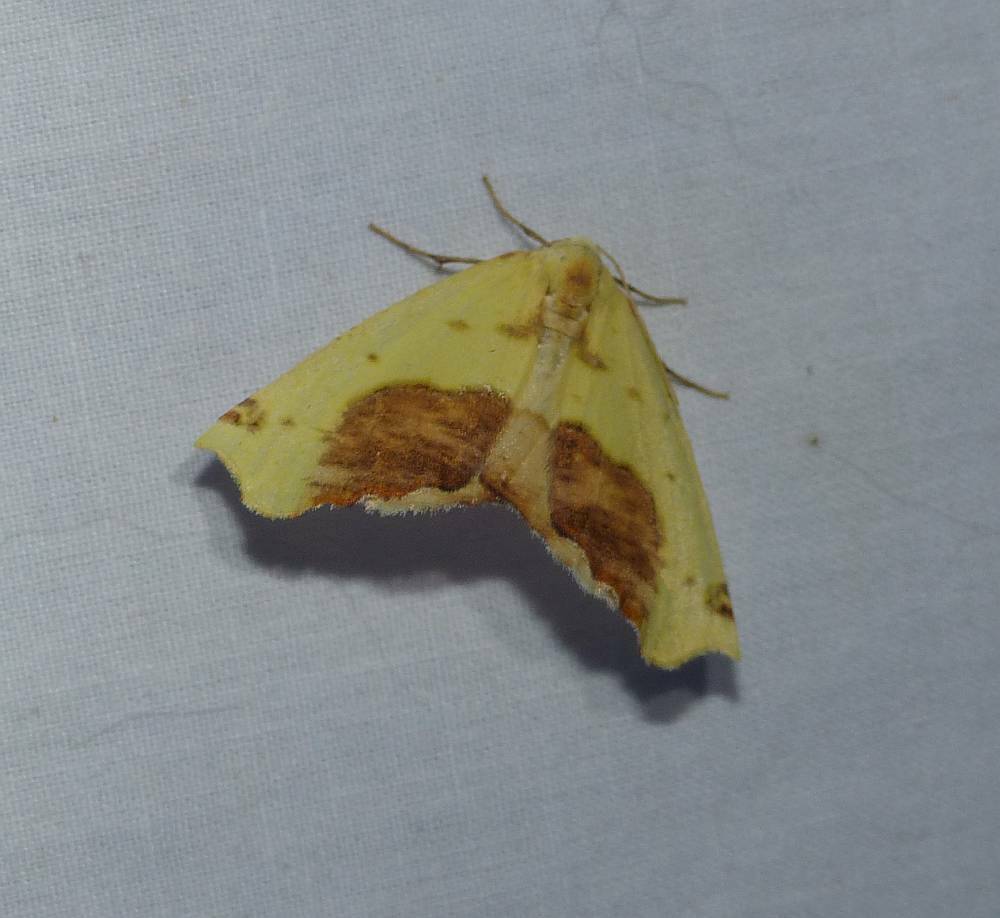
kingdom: Animalia
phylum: Arthropoda
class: Insecta
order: Lepidoptera
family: Geometridae
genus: Sicya
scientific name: Sicya macularia
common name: Sharp-lined yellow
